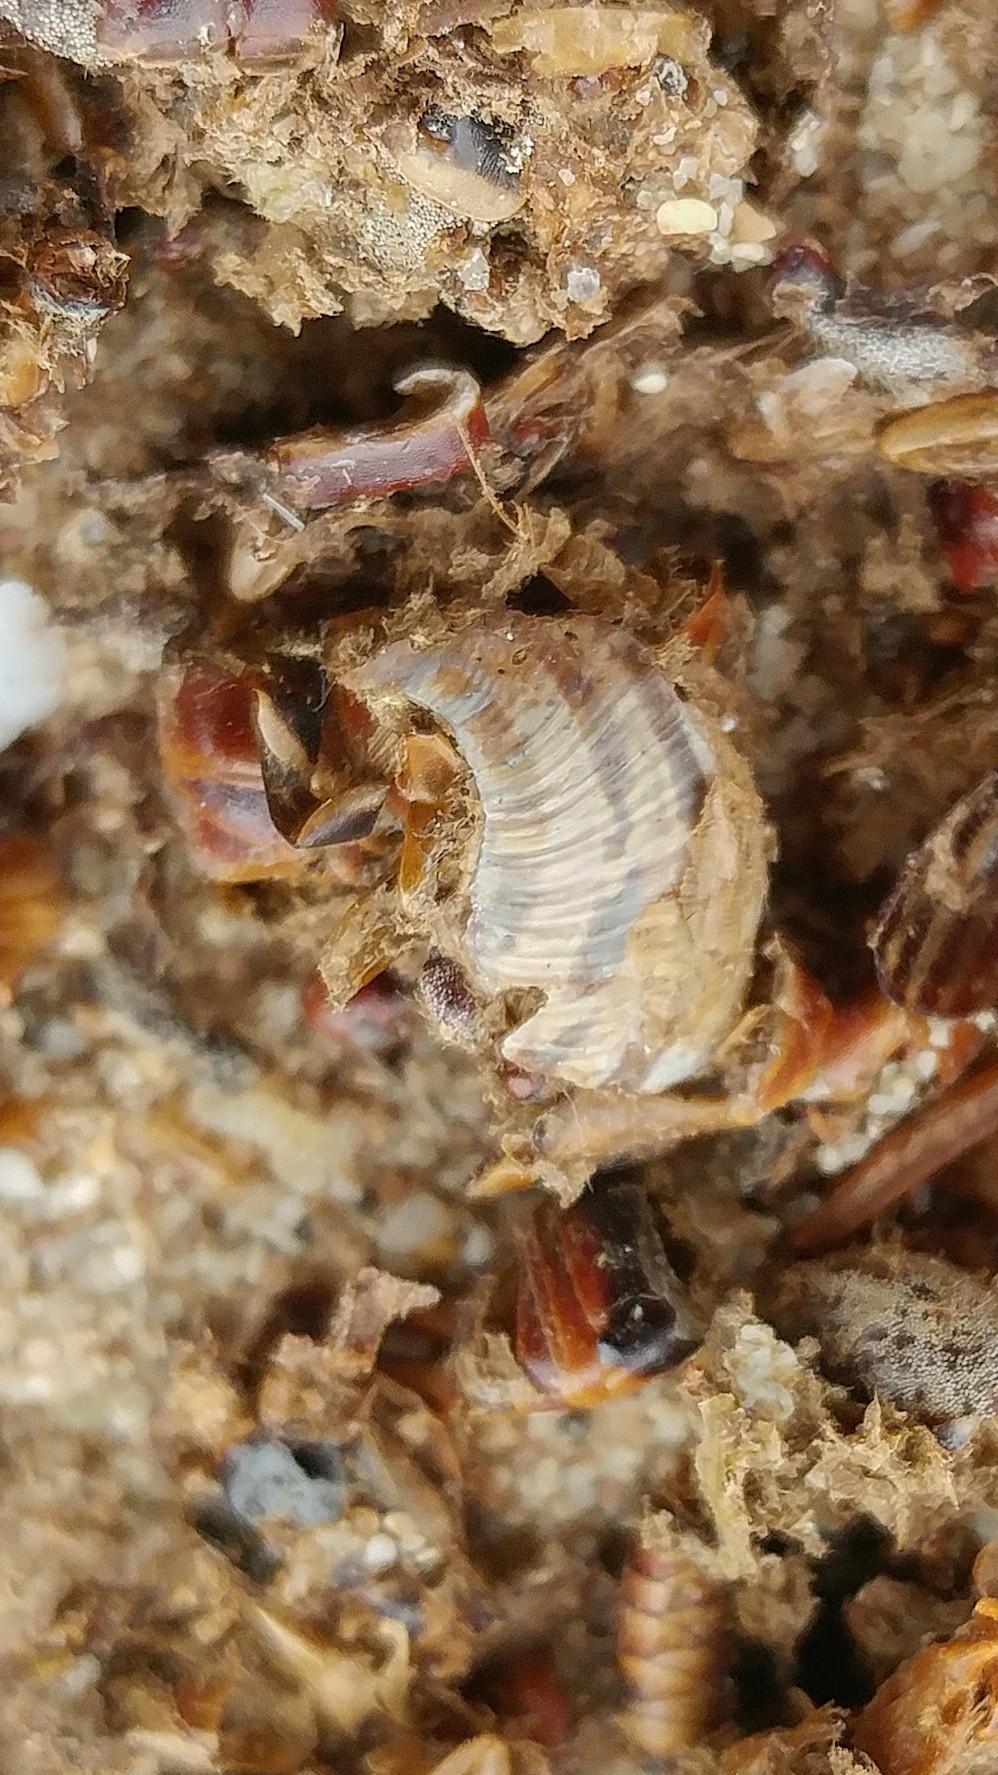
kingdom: Animalia
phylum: Mollusca
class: Gastropoda
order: Stylommatophora
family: Helicidae
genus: Cornu
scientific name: Cornu aspersum
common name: Brown garden snail
